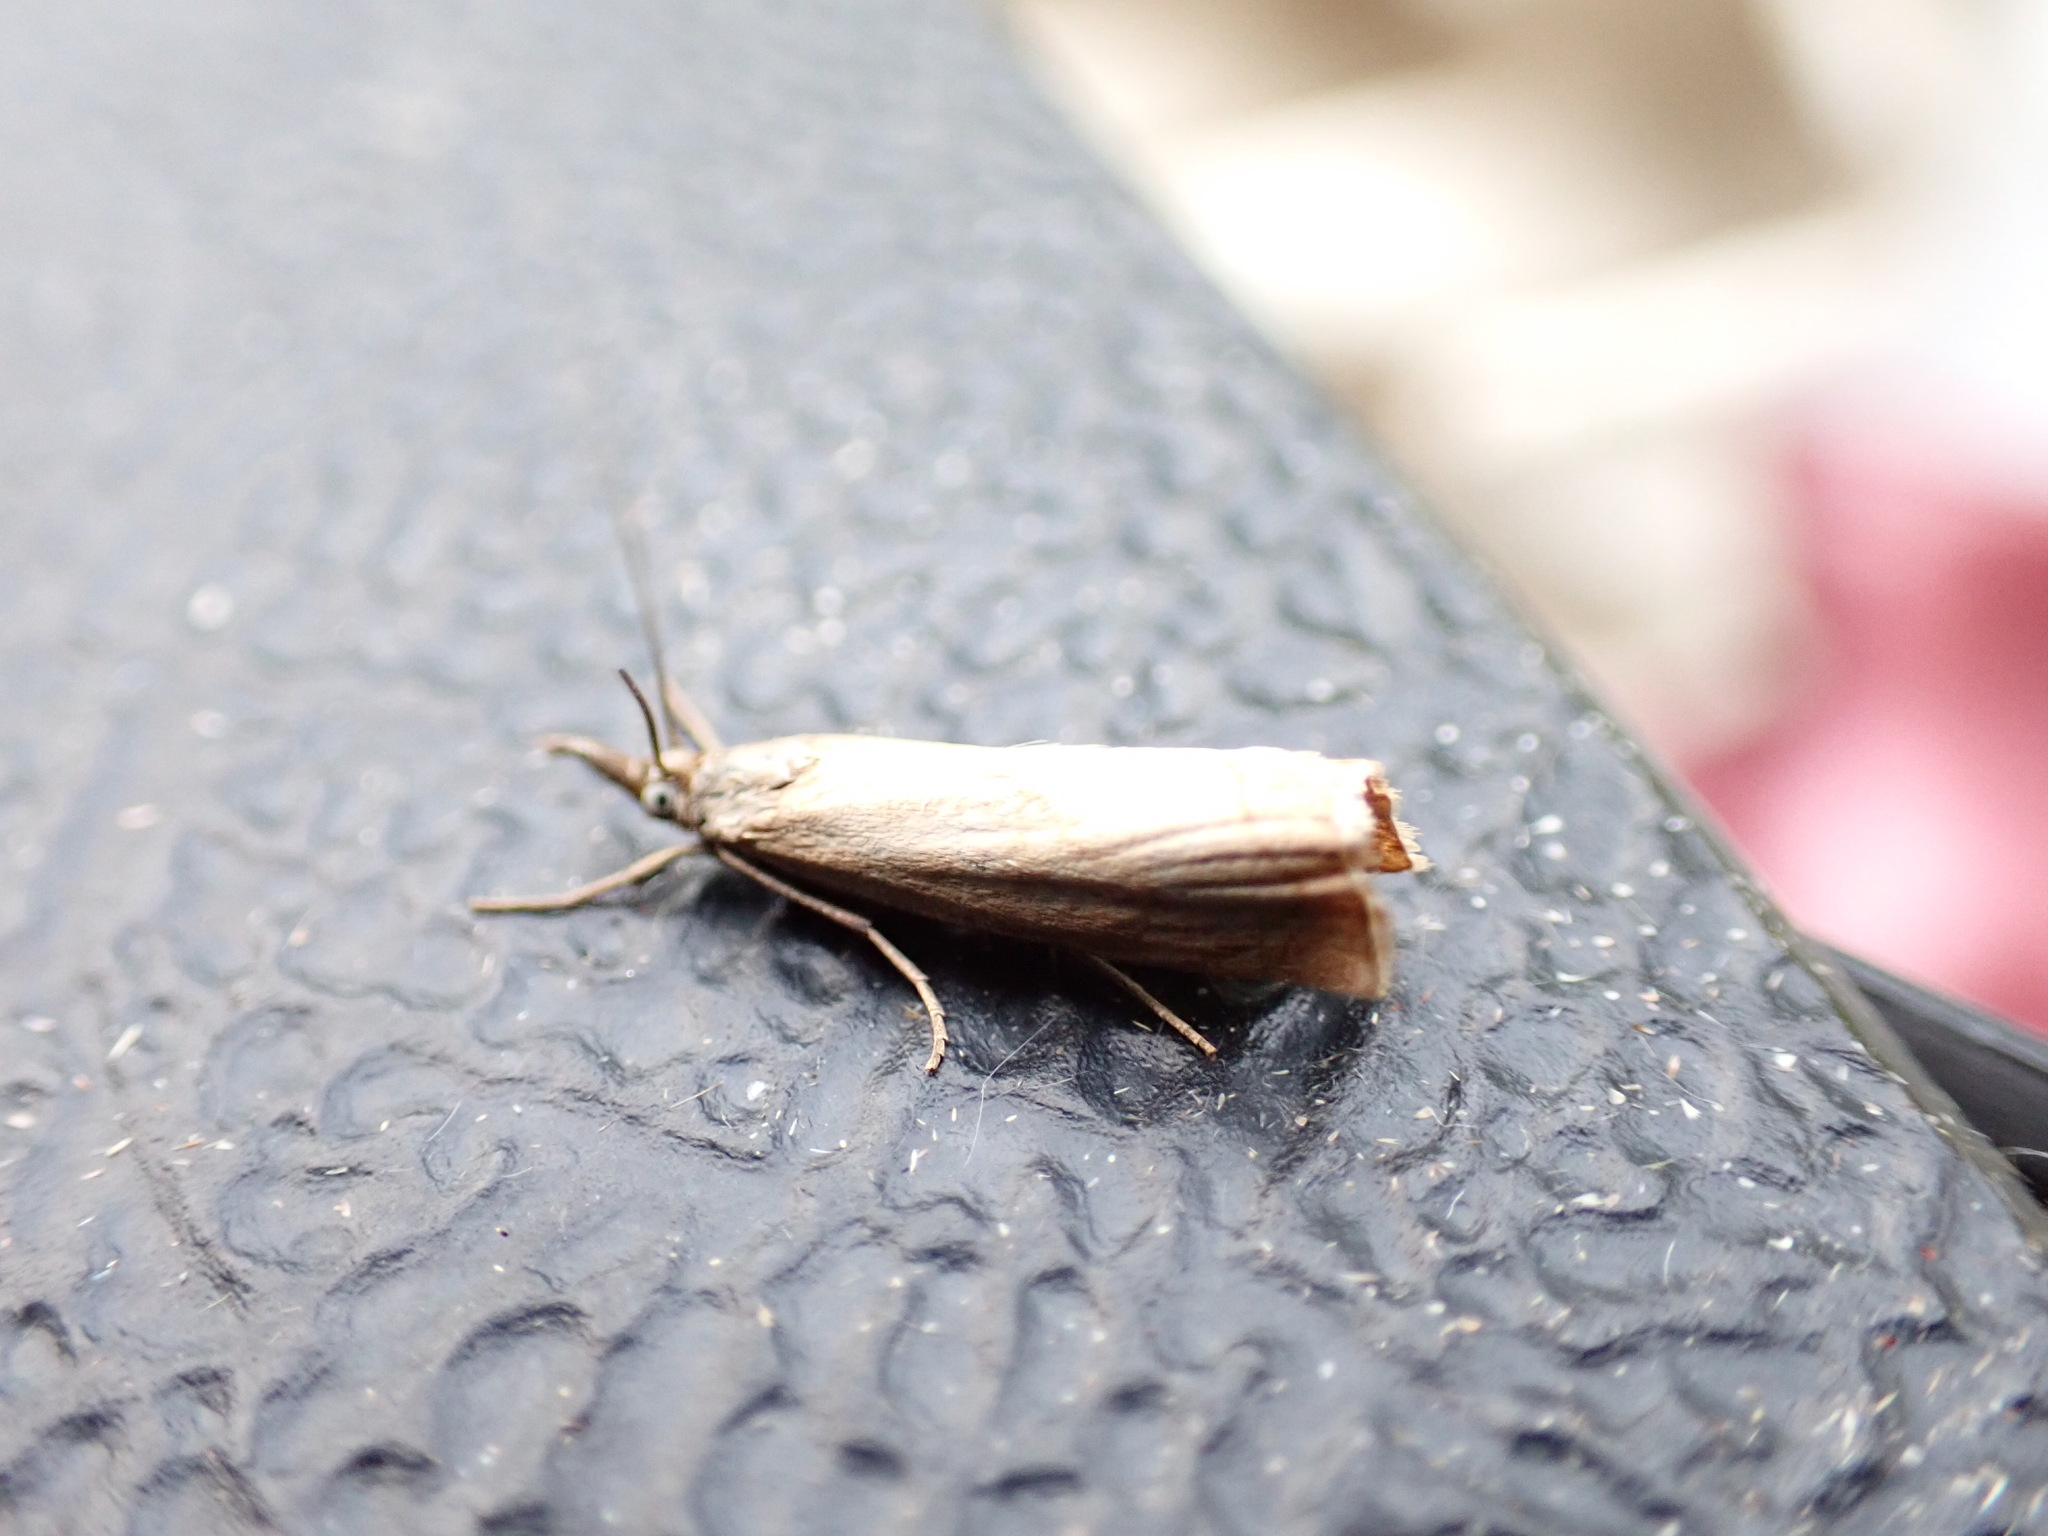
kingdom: Animalia
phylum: Arthropoda
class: Insecta
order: Lepidoptera
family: Crambidae
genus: Chrysoteuchia
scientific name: Chrysoteuchia culmella
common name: Garden grass-veneer
